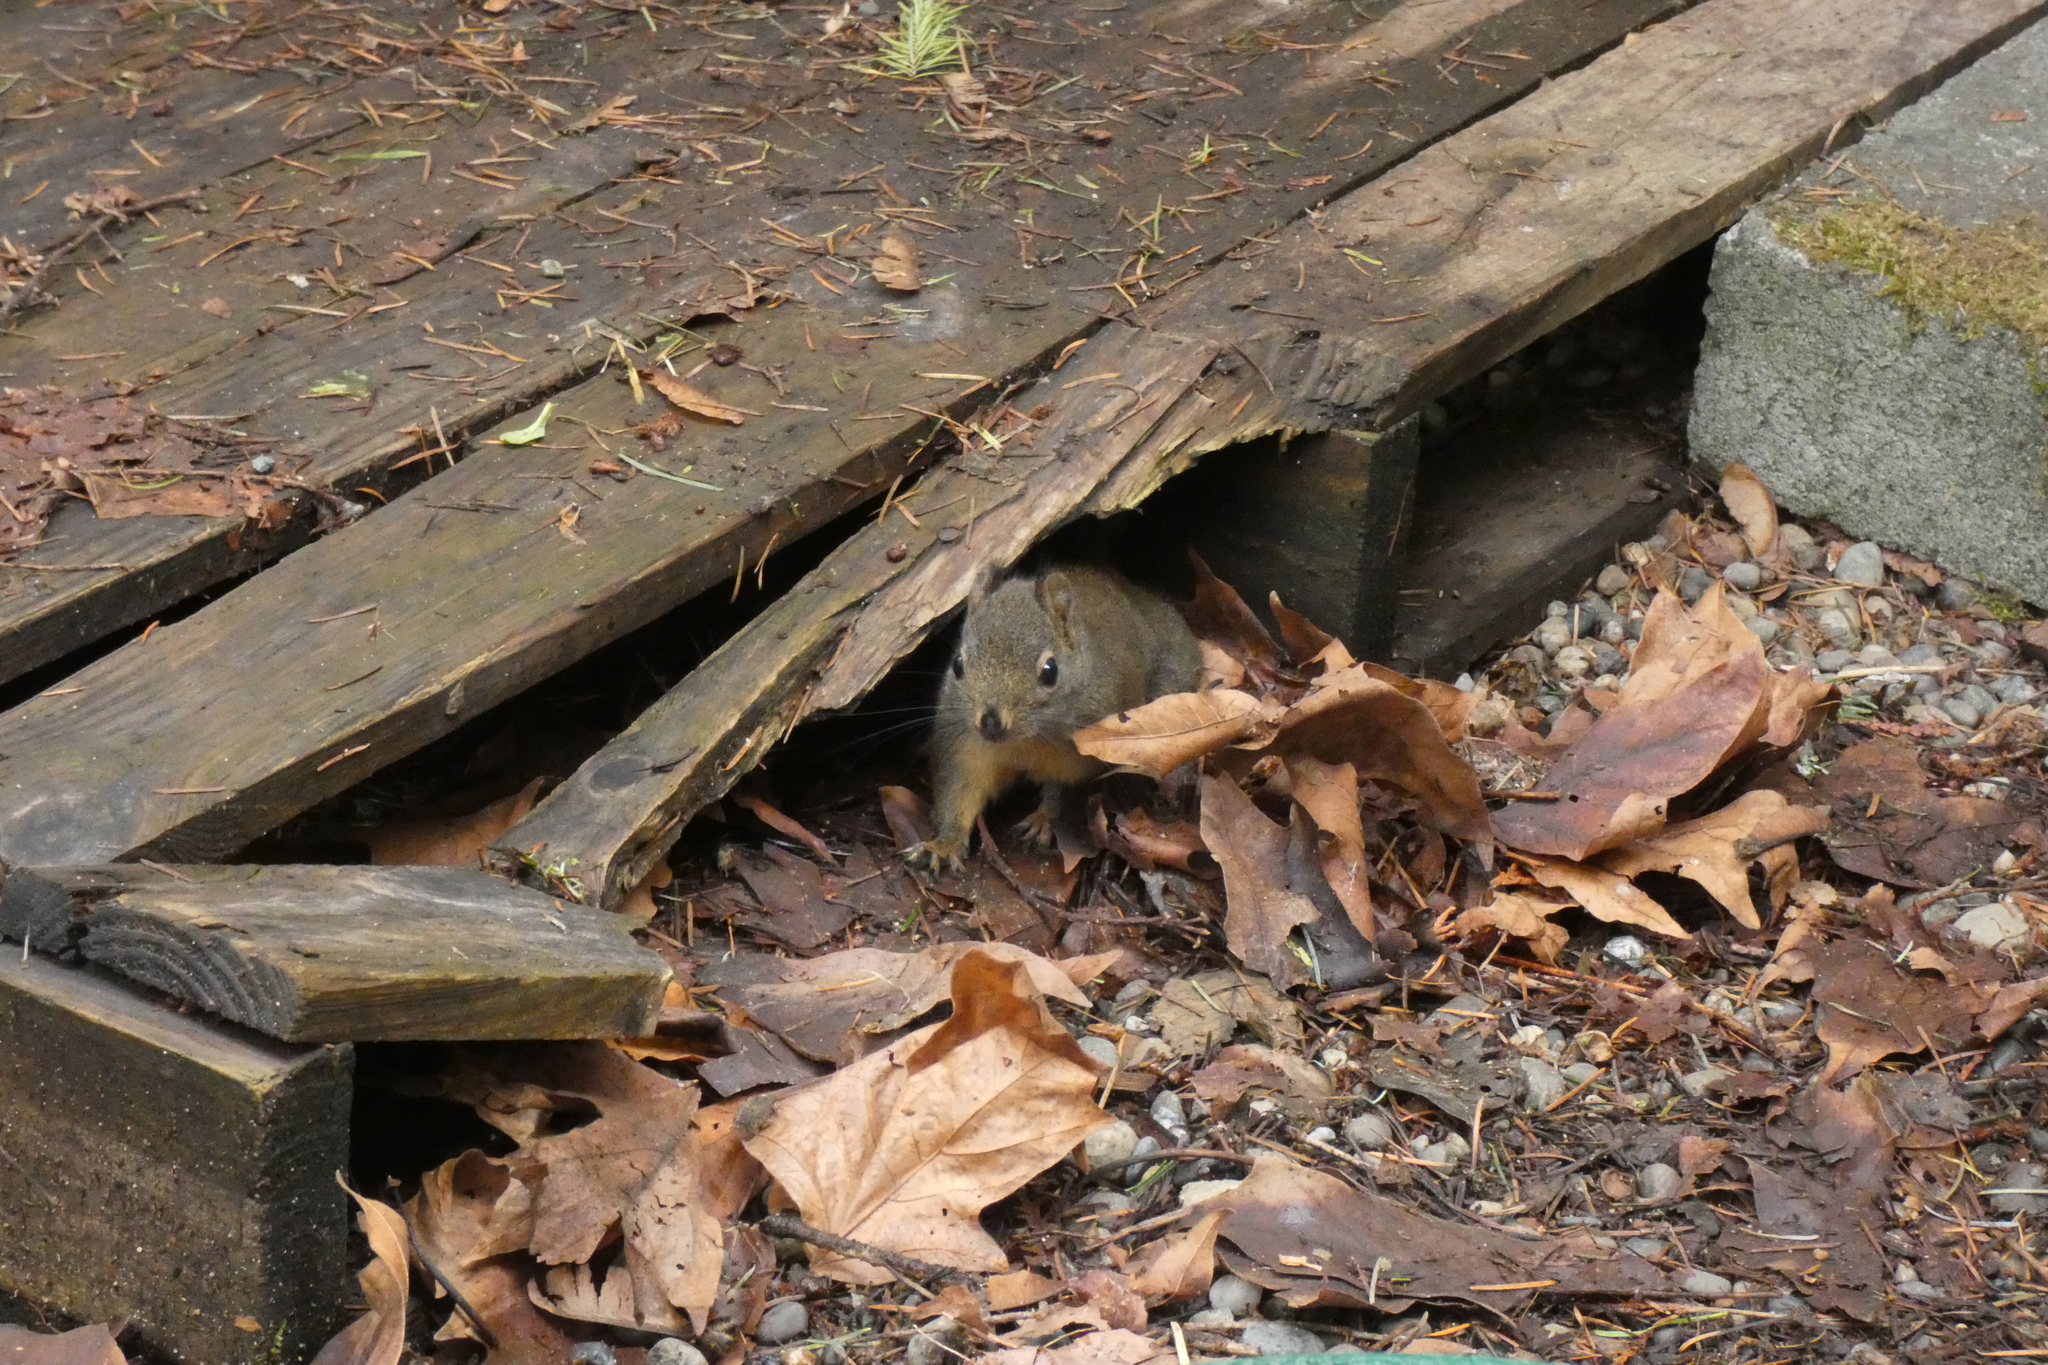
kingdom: Animalia
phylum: Chordata
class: Mammalia
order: Rodentia
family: Sciuridae
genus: Tamiasciurus
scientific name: Tamiasciurus douglasii
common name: Douglas's squirrel
